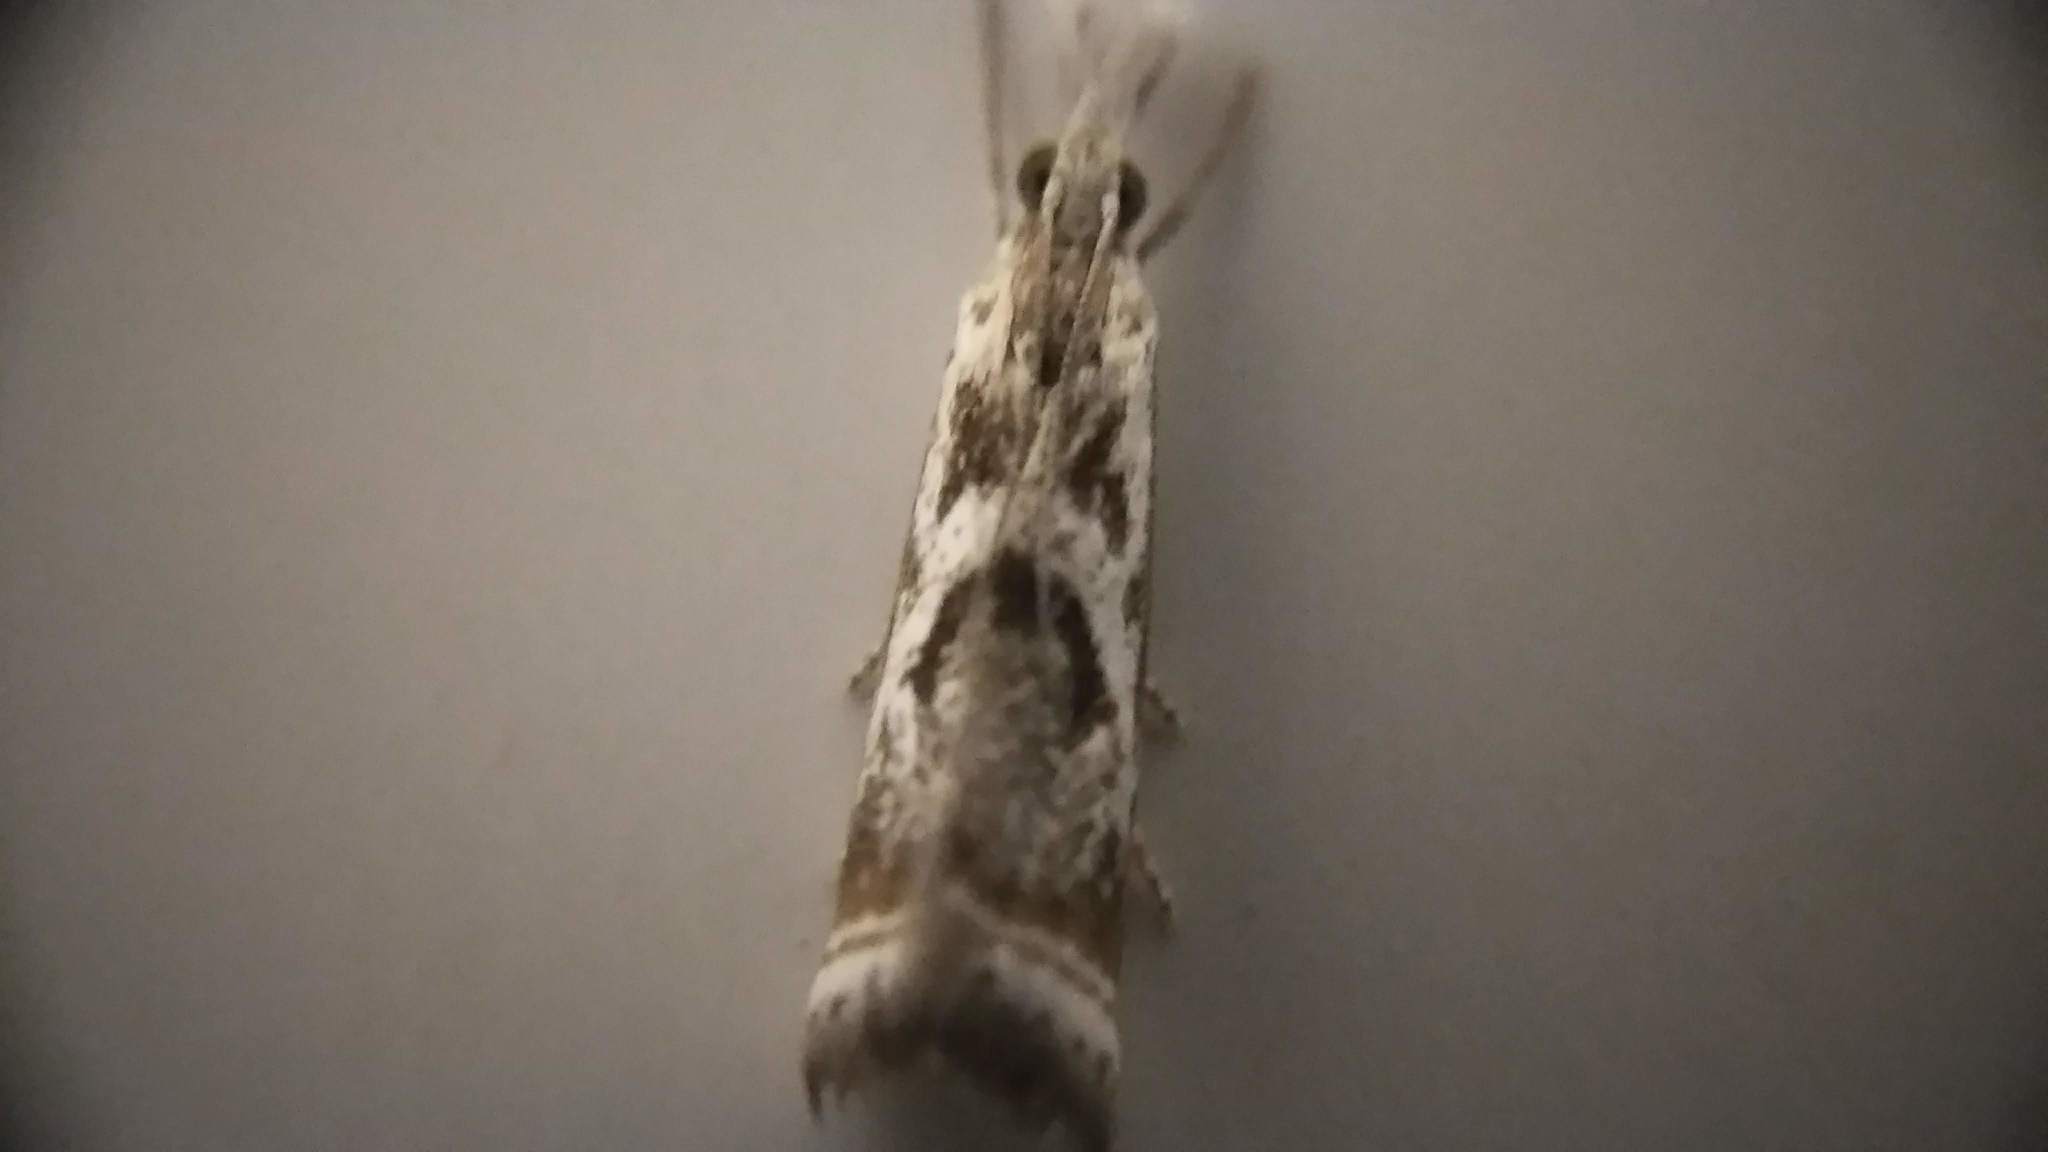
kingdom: Animalia
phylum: Arthropoda
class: Insecta
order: Lepidoptera
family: Crambidae
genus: Microcrambus
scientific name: Microcrambus elegans
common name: Elegant grass-veneer
